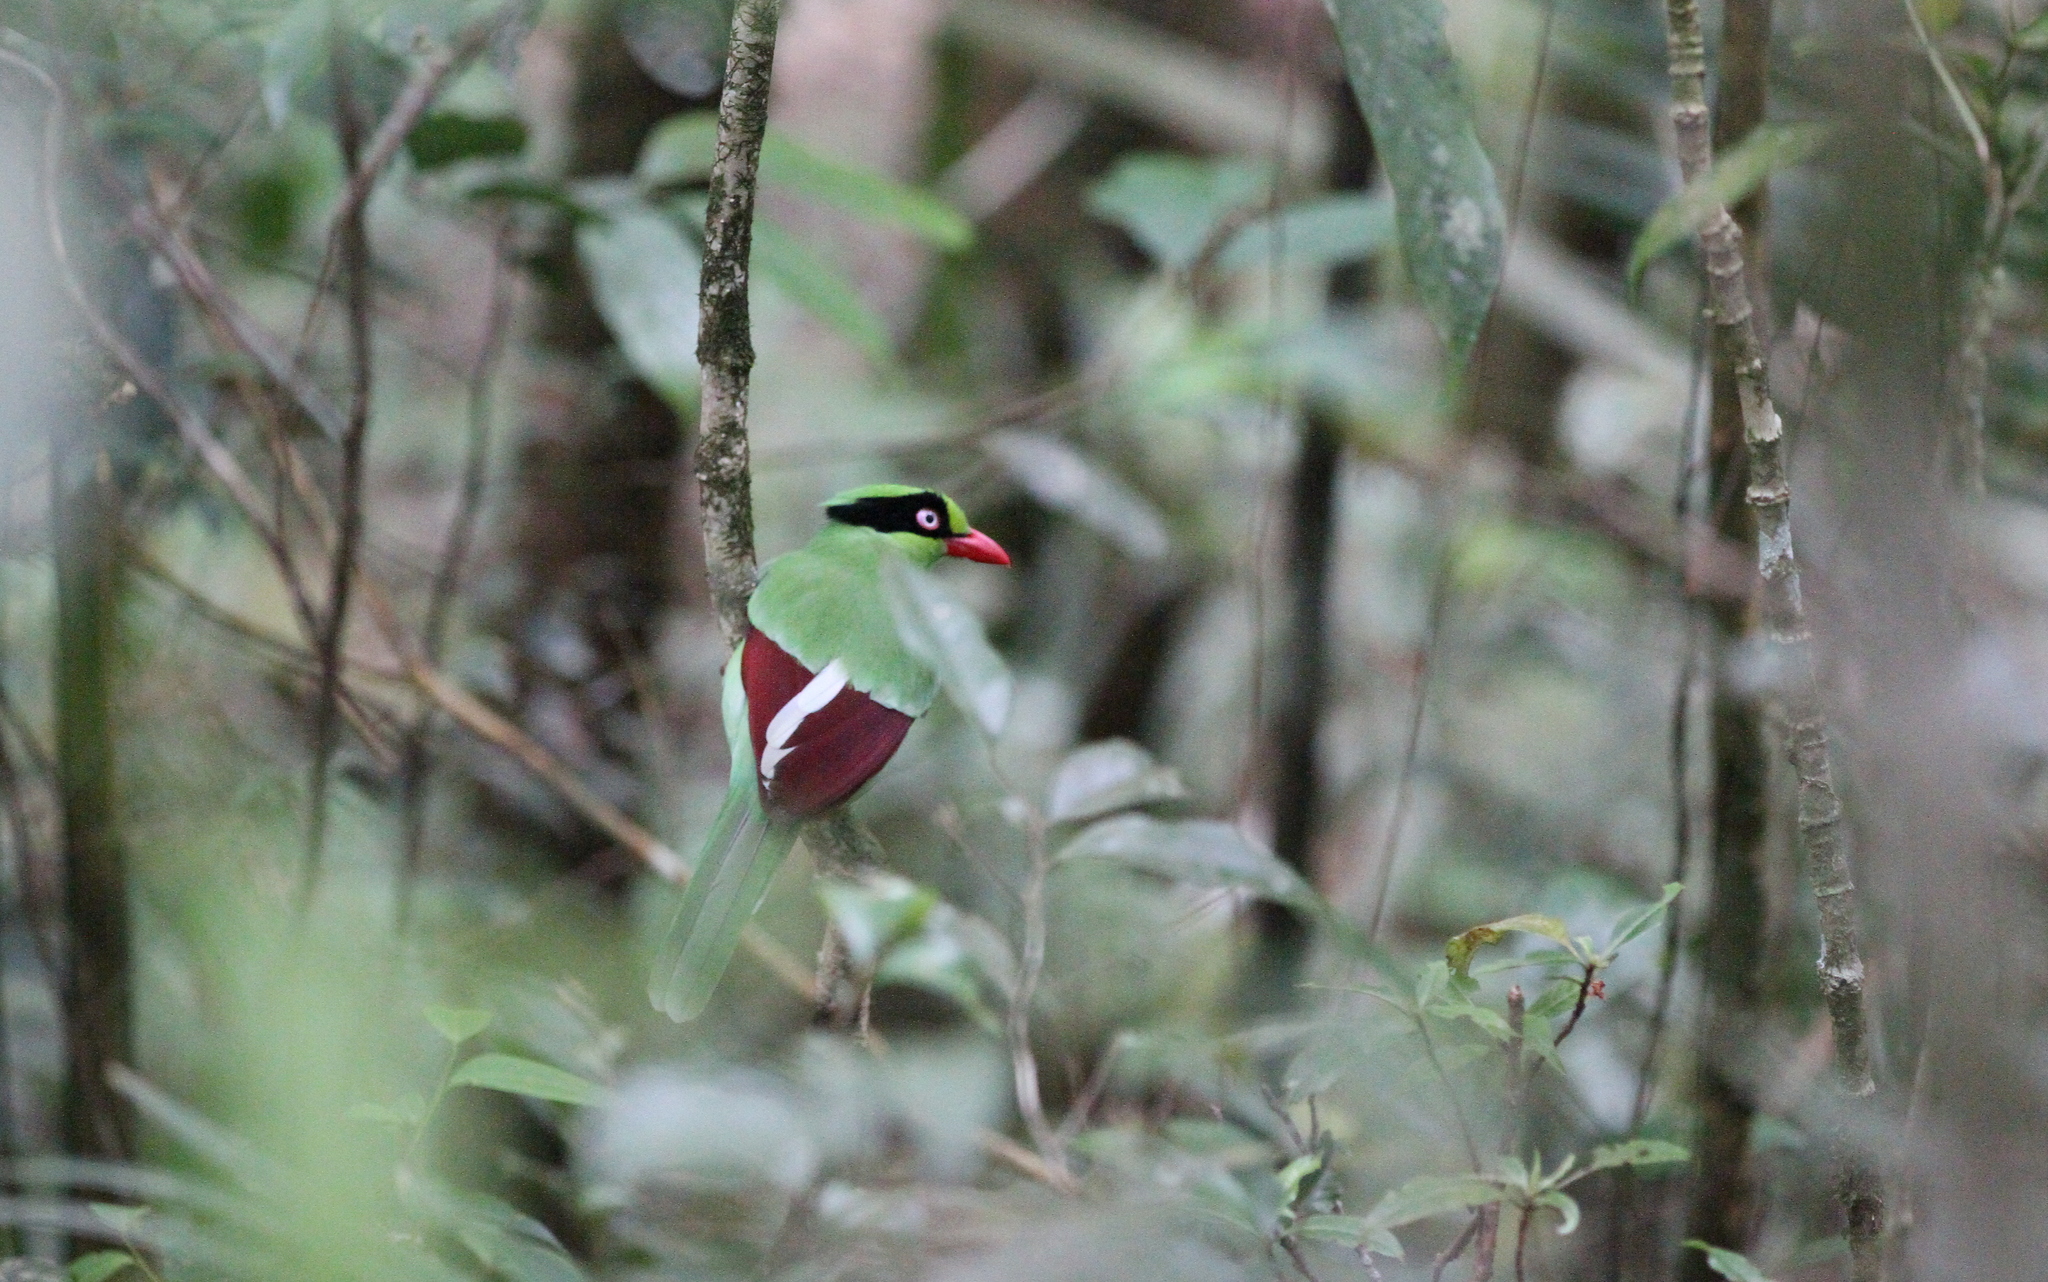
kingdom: Animalia
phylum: Chordata
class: Aves
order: Passeriformes
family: Corvidae
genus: Cissa
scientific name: Cissa jefferyi
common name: Bornean green magpie
